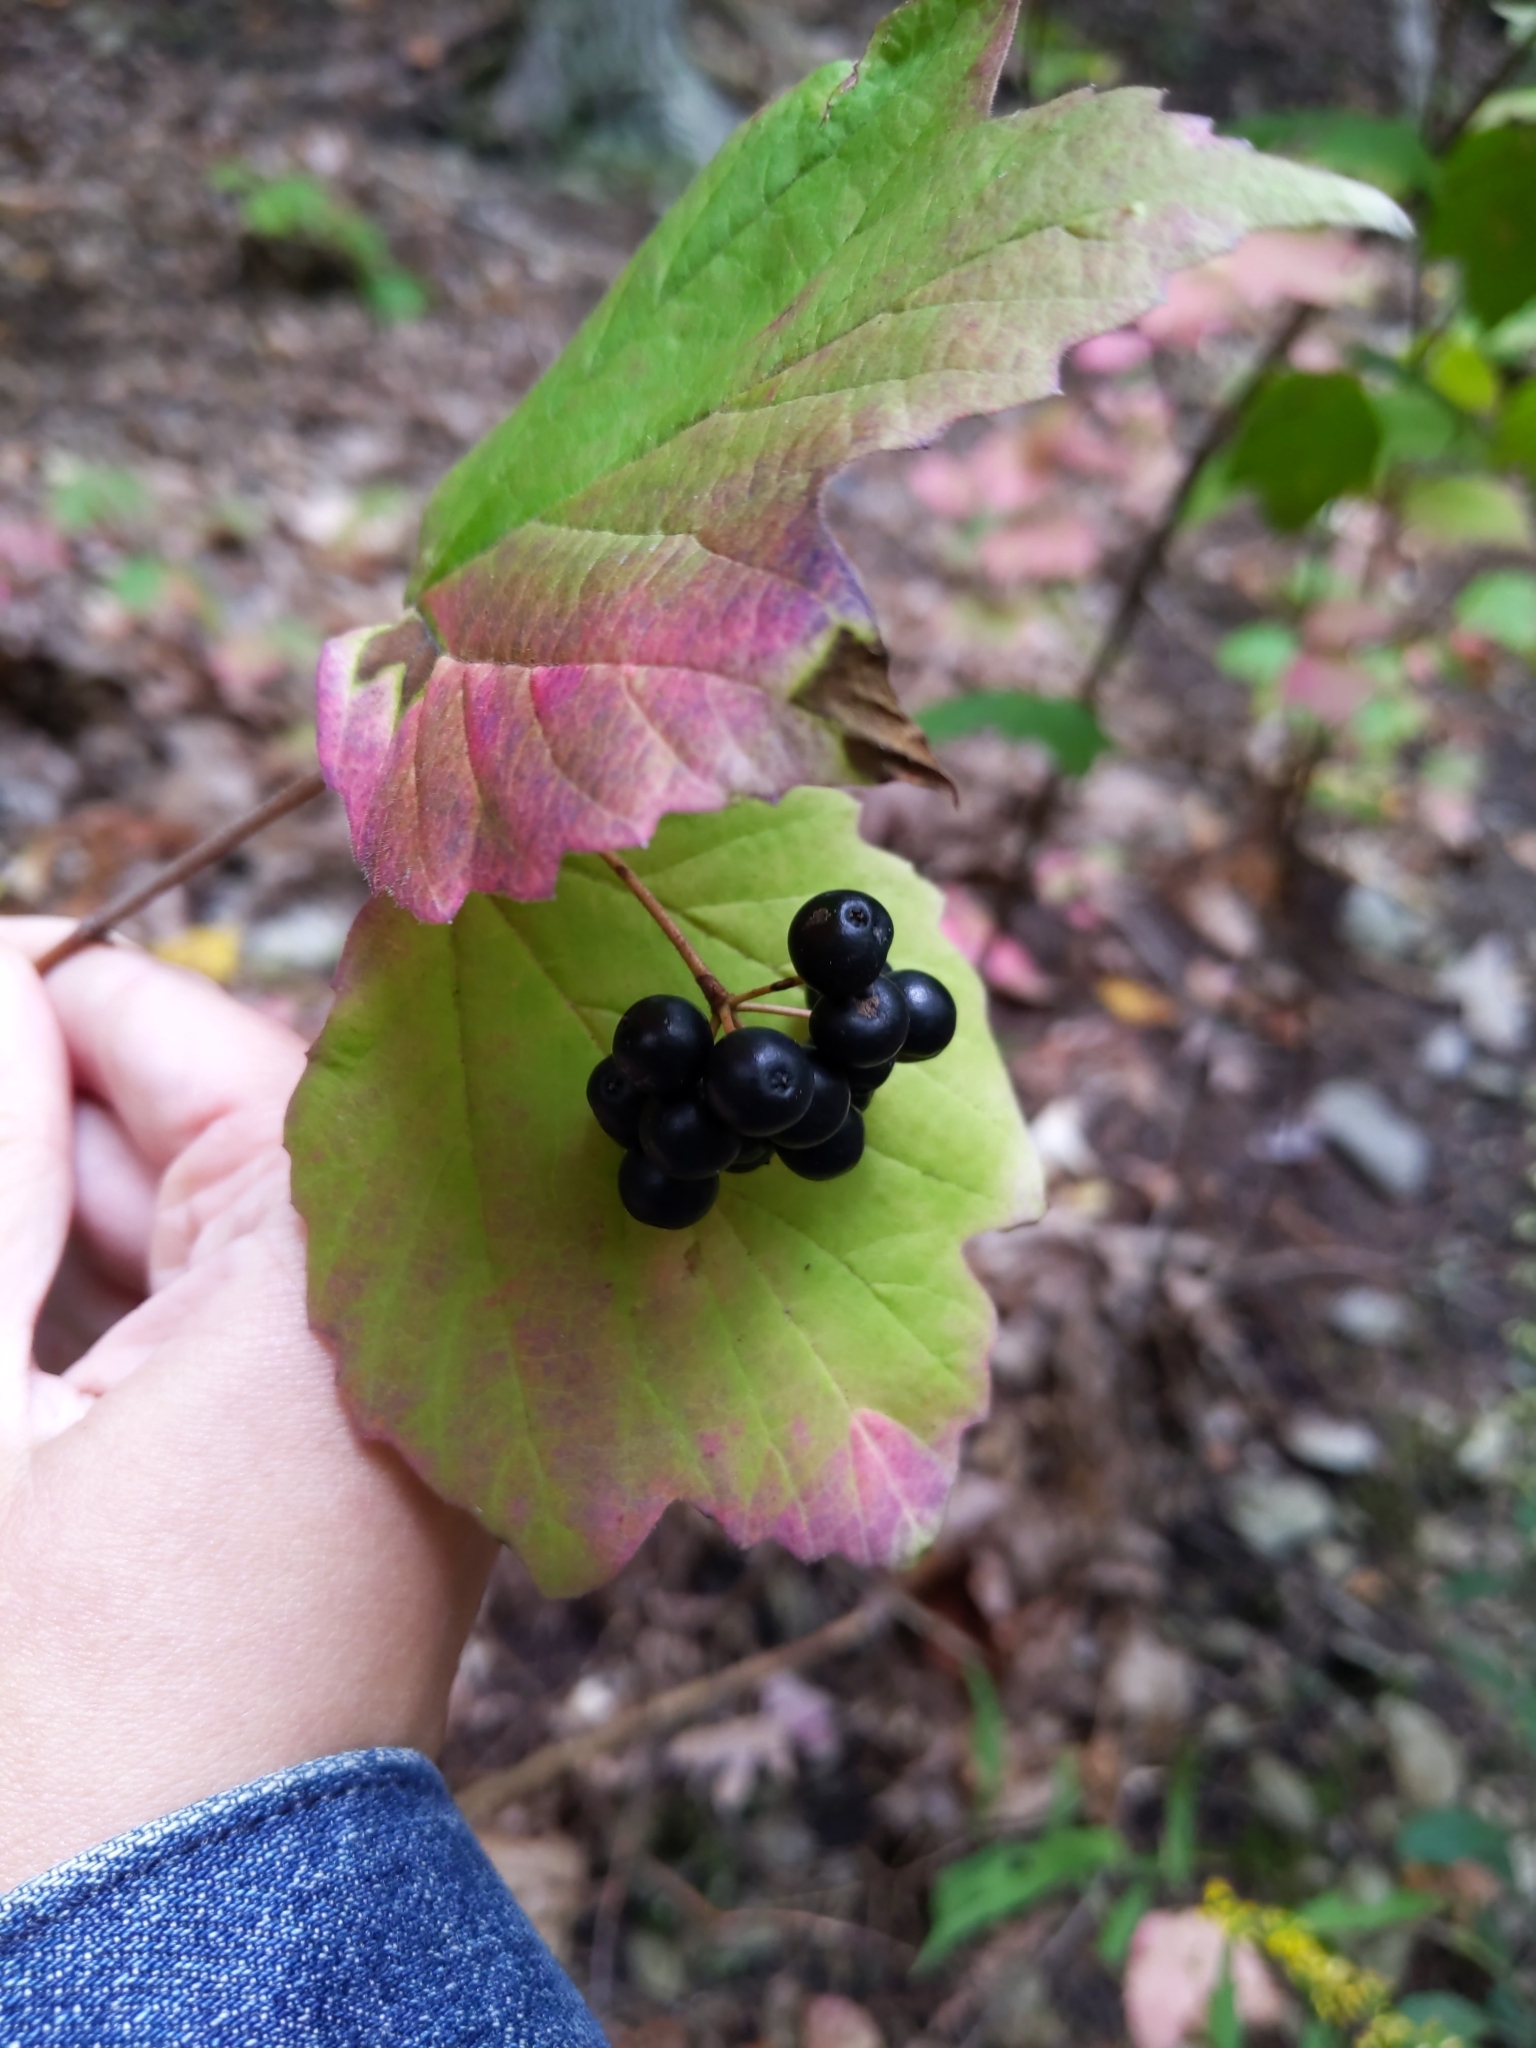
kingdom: Plantae
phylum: Tracheophyta
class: Magnoliopsida
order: Dipsacales
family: Viburnaceae
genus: Viburnum
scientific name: Viburnum acerifolium
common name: Dockmackie
